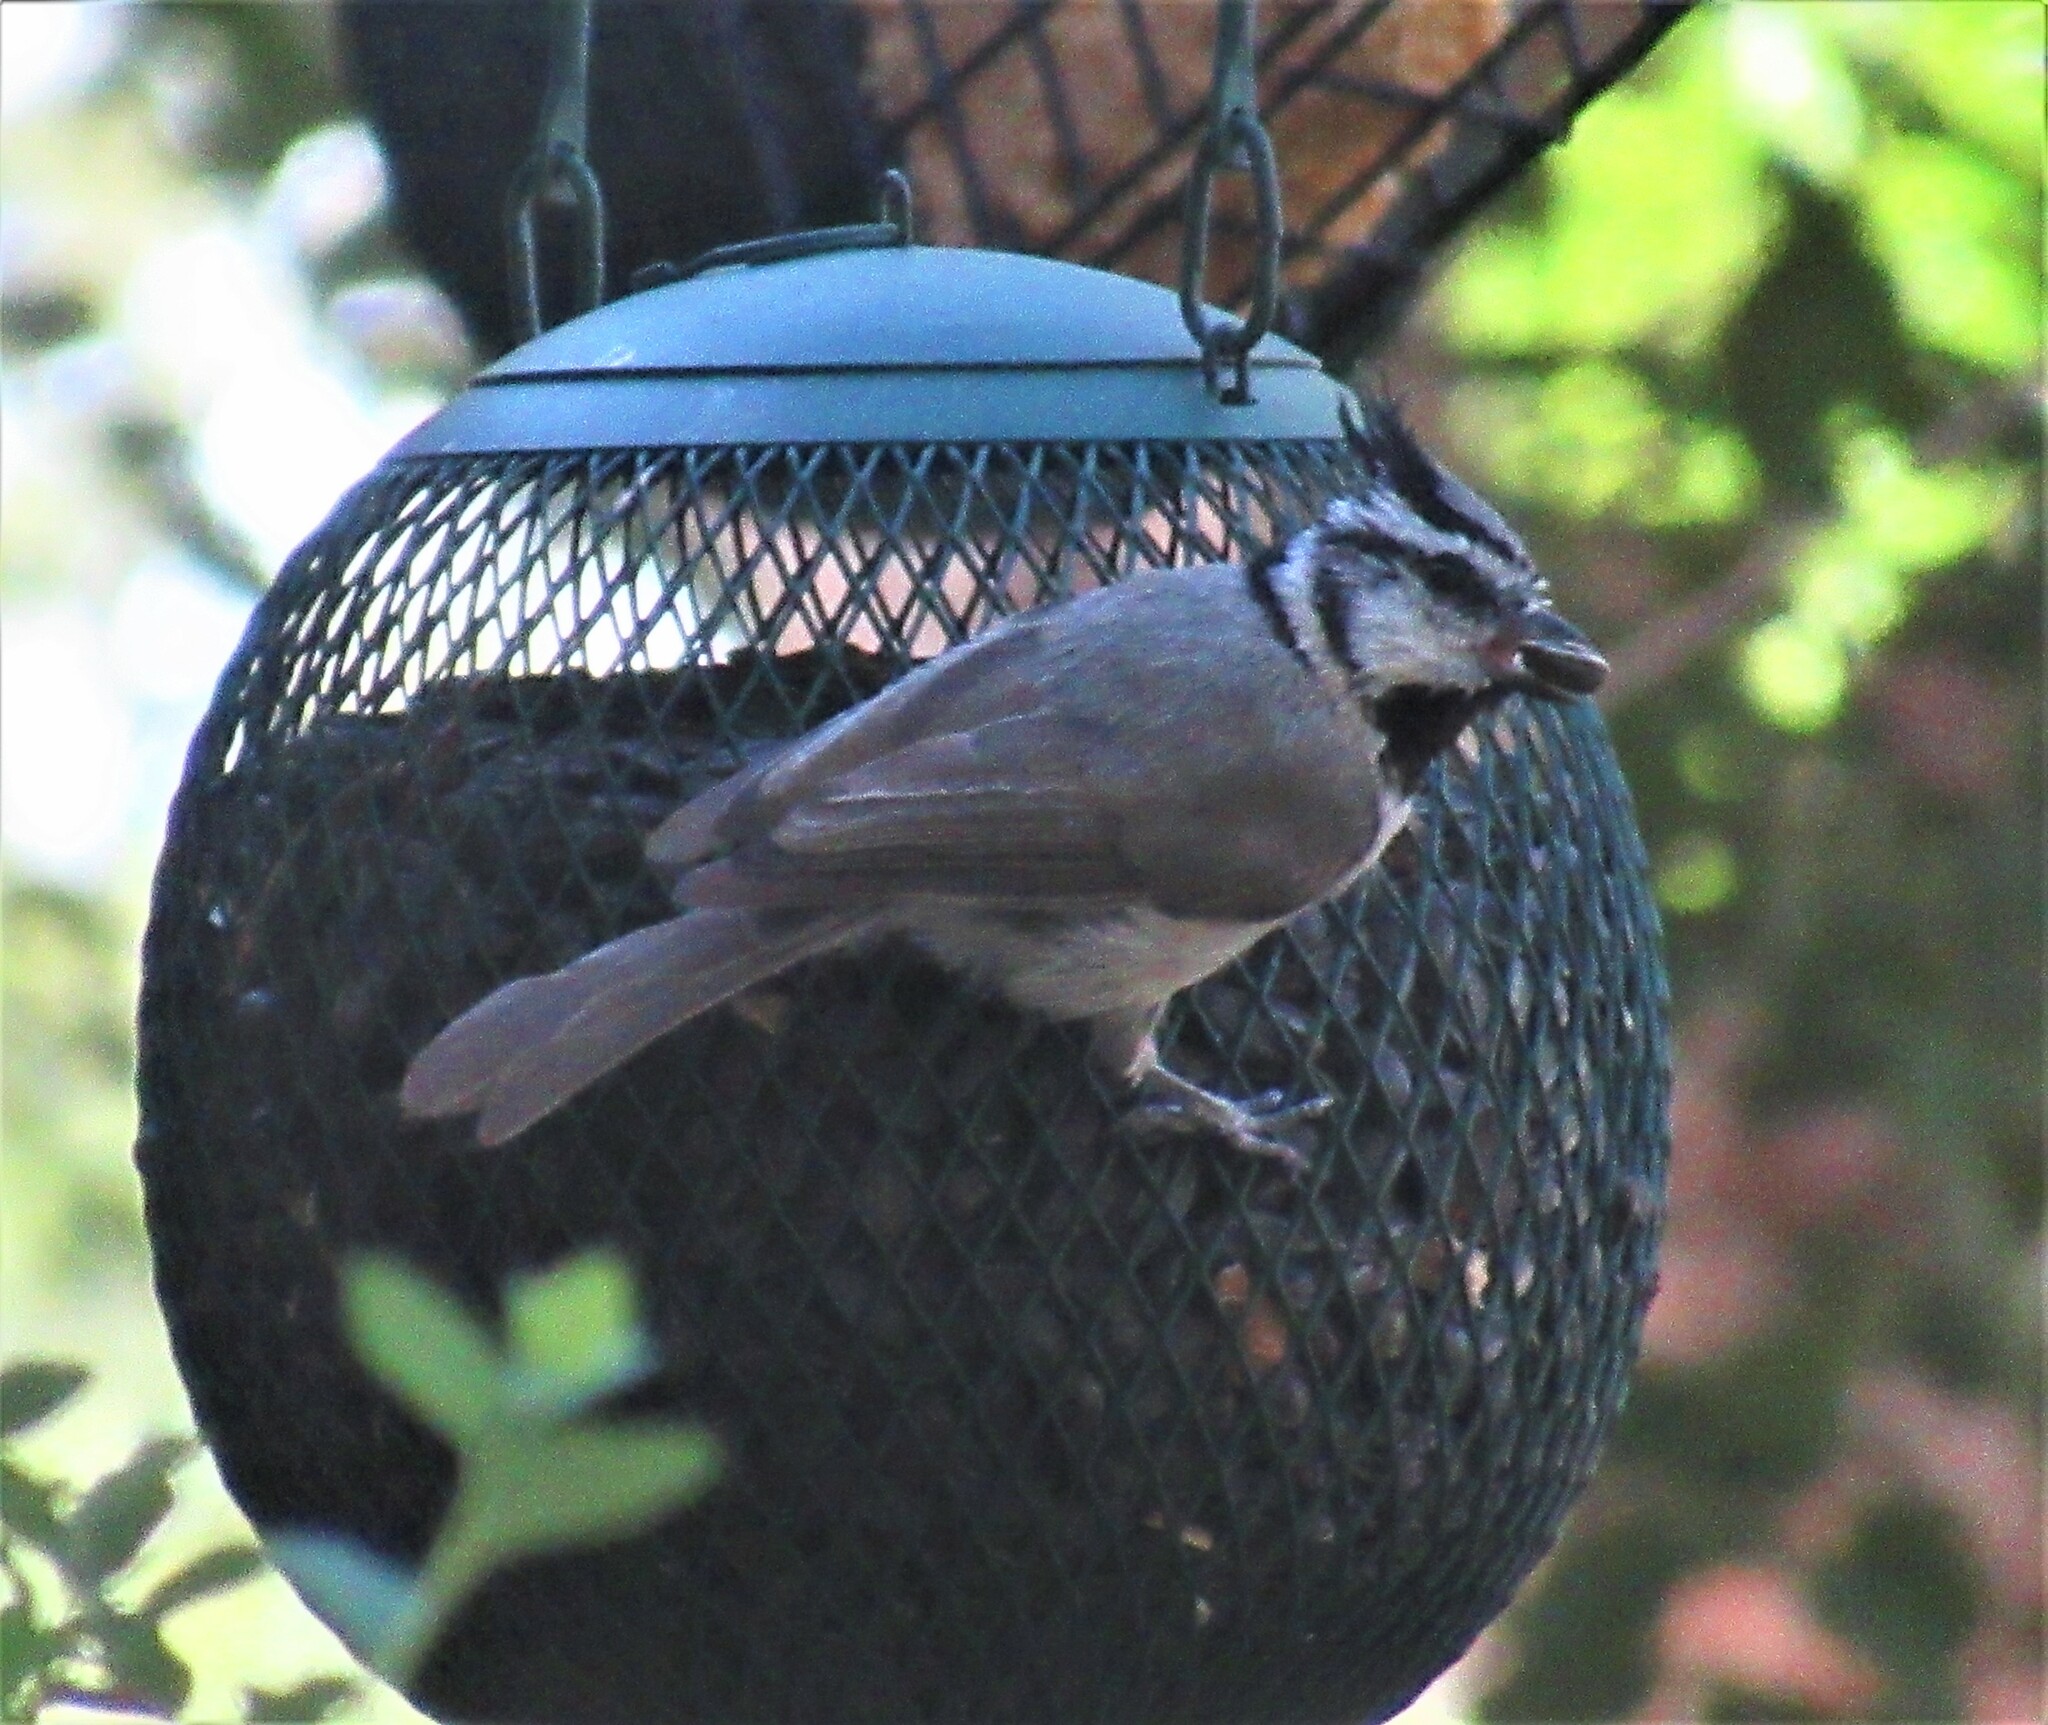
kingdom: Animalia
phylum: Chordata
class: Aves
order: Passeriformes
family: Paridae
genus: Baeolophus
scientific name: Baeolophus wollweberi
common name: Bridled titmouse
